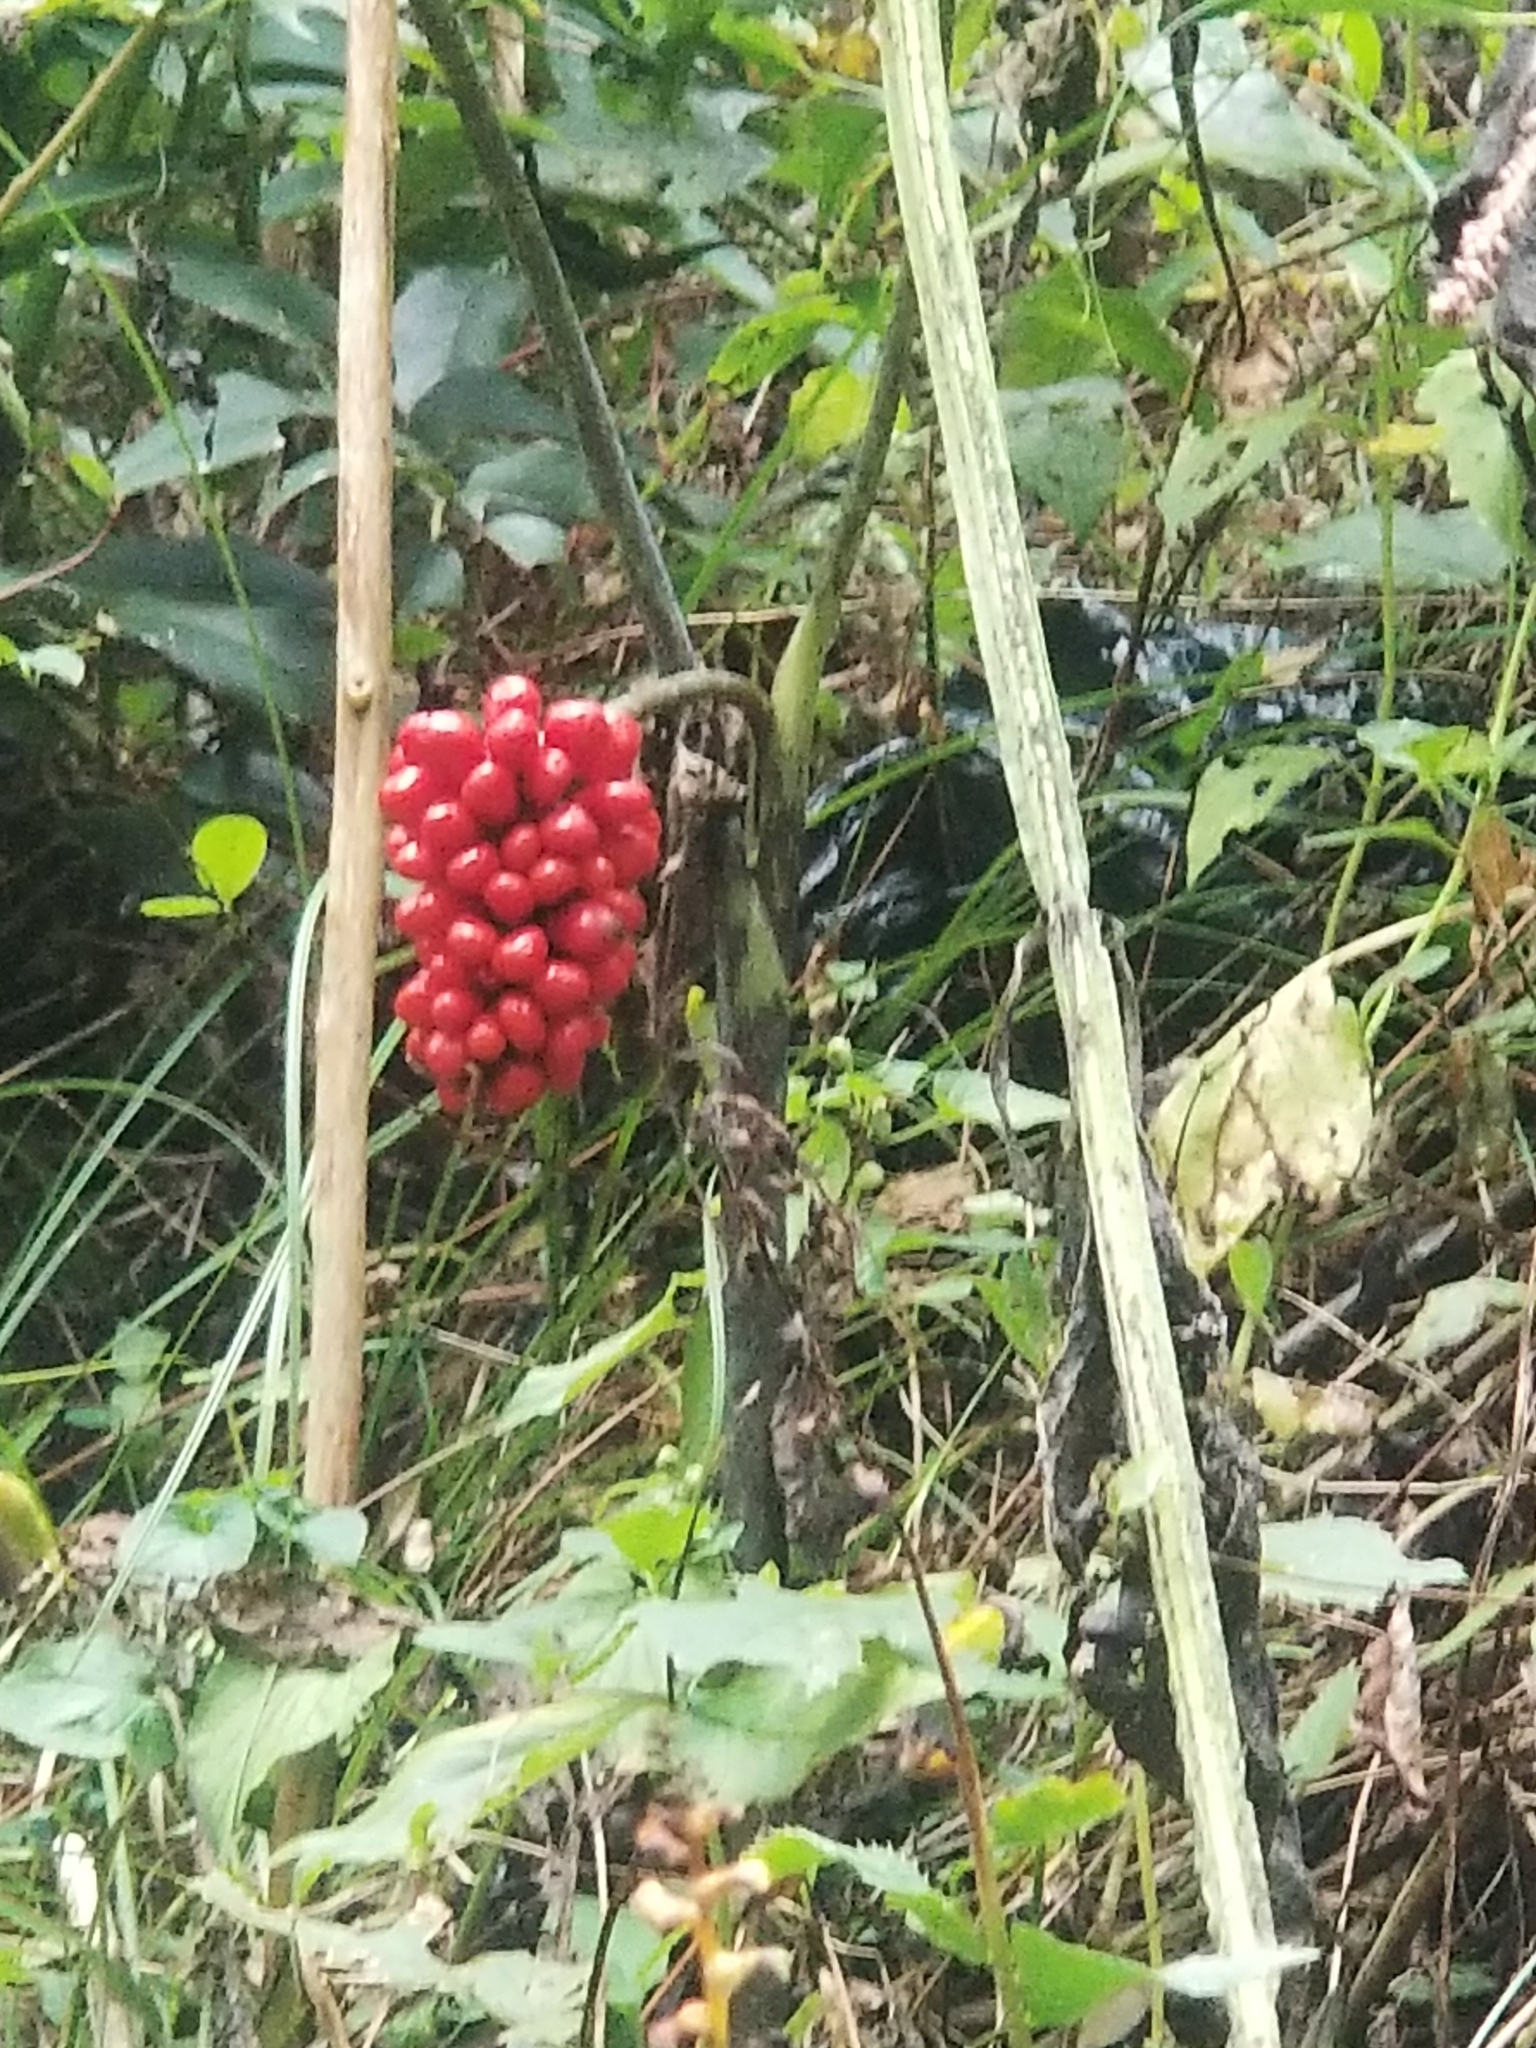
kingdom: Plantae
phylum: Tracheophyta
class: Liliopsida
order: Alismatales
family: Araceae
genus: Arisaema
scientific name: Arisaema triphyllum
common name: Jack-in-the-pulpit
